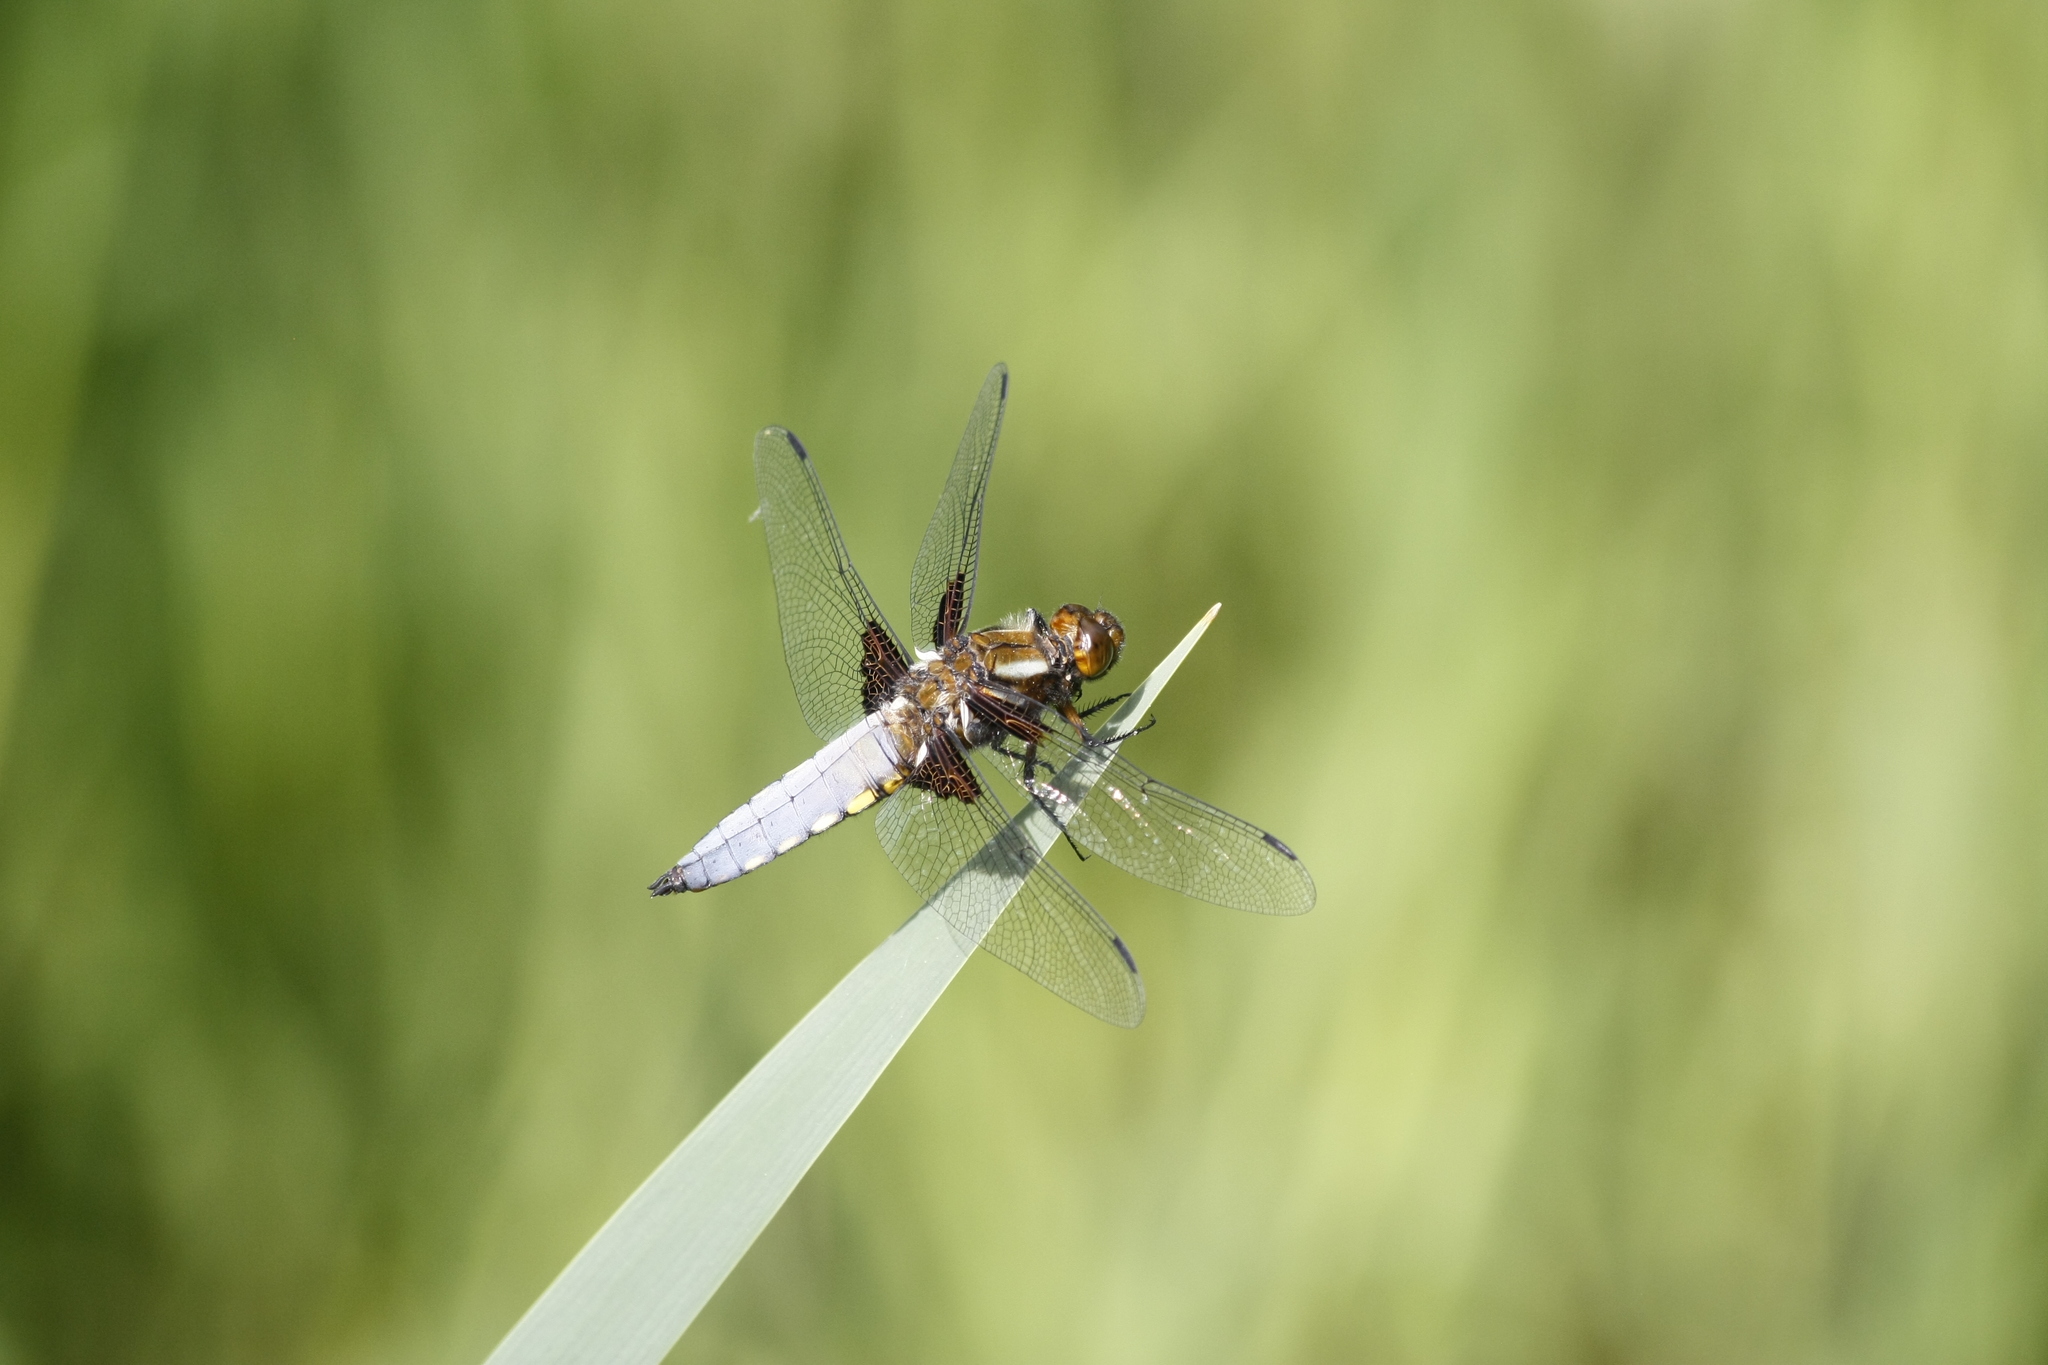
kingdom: Animalia
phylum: Arthropoda
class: Insecta
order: Odonata
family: Libellulidae
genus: Libellula
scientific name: Libellula depressa
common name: Broad-bodied chaser
